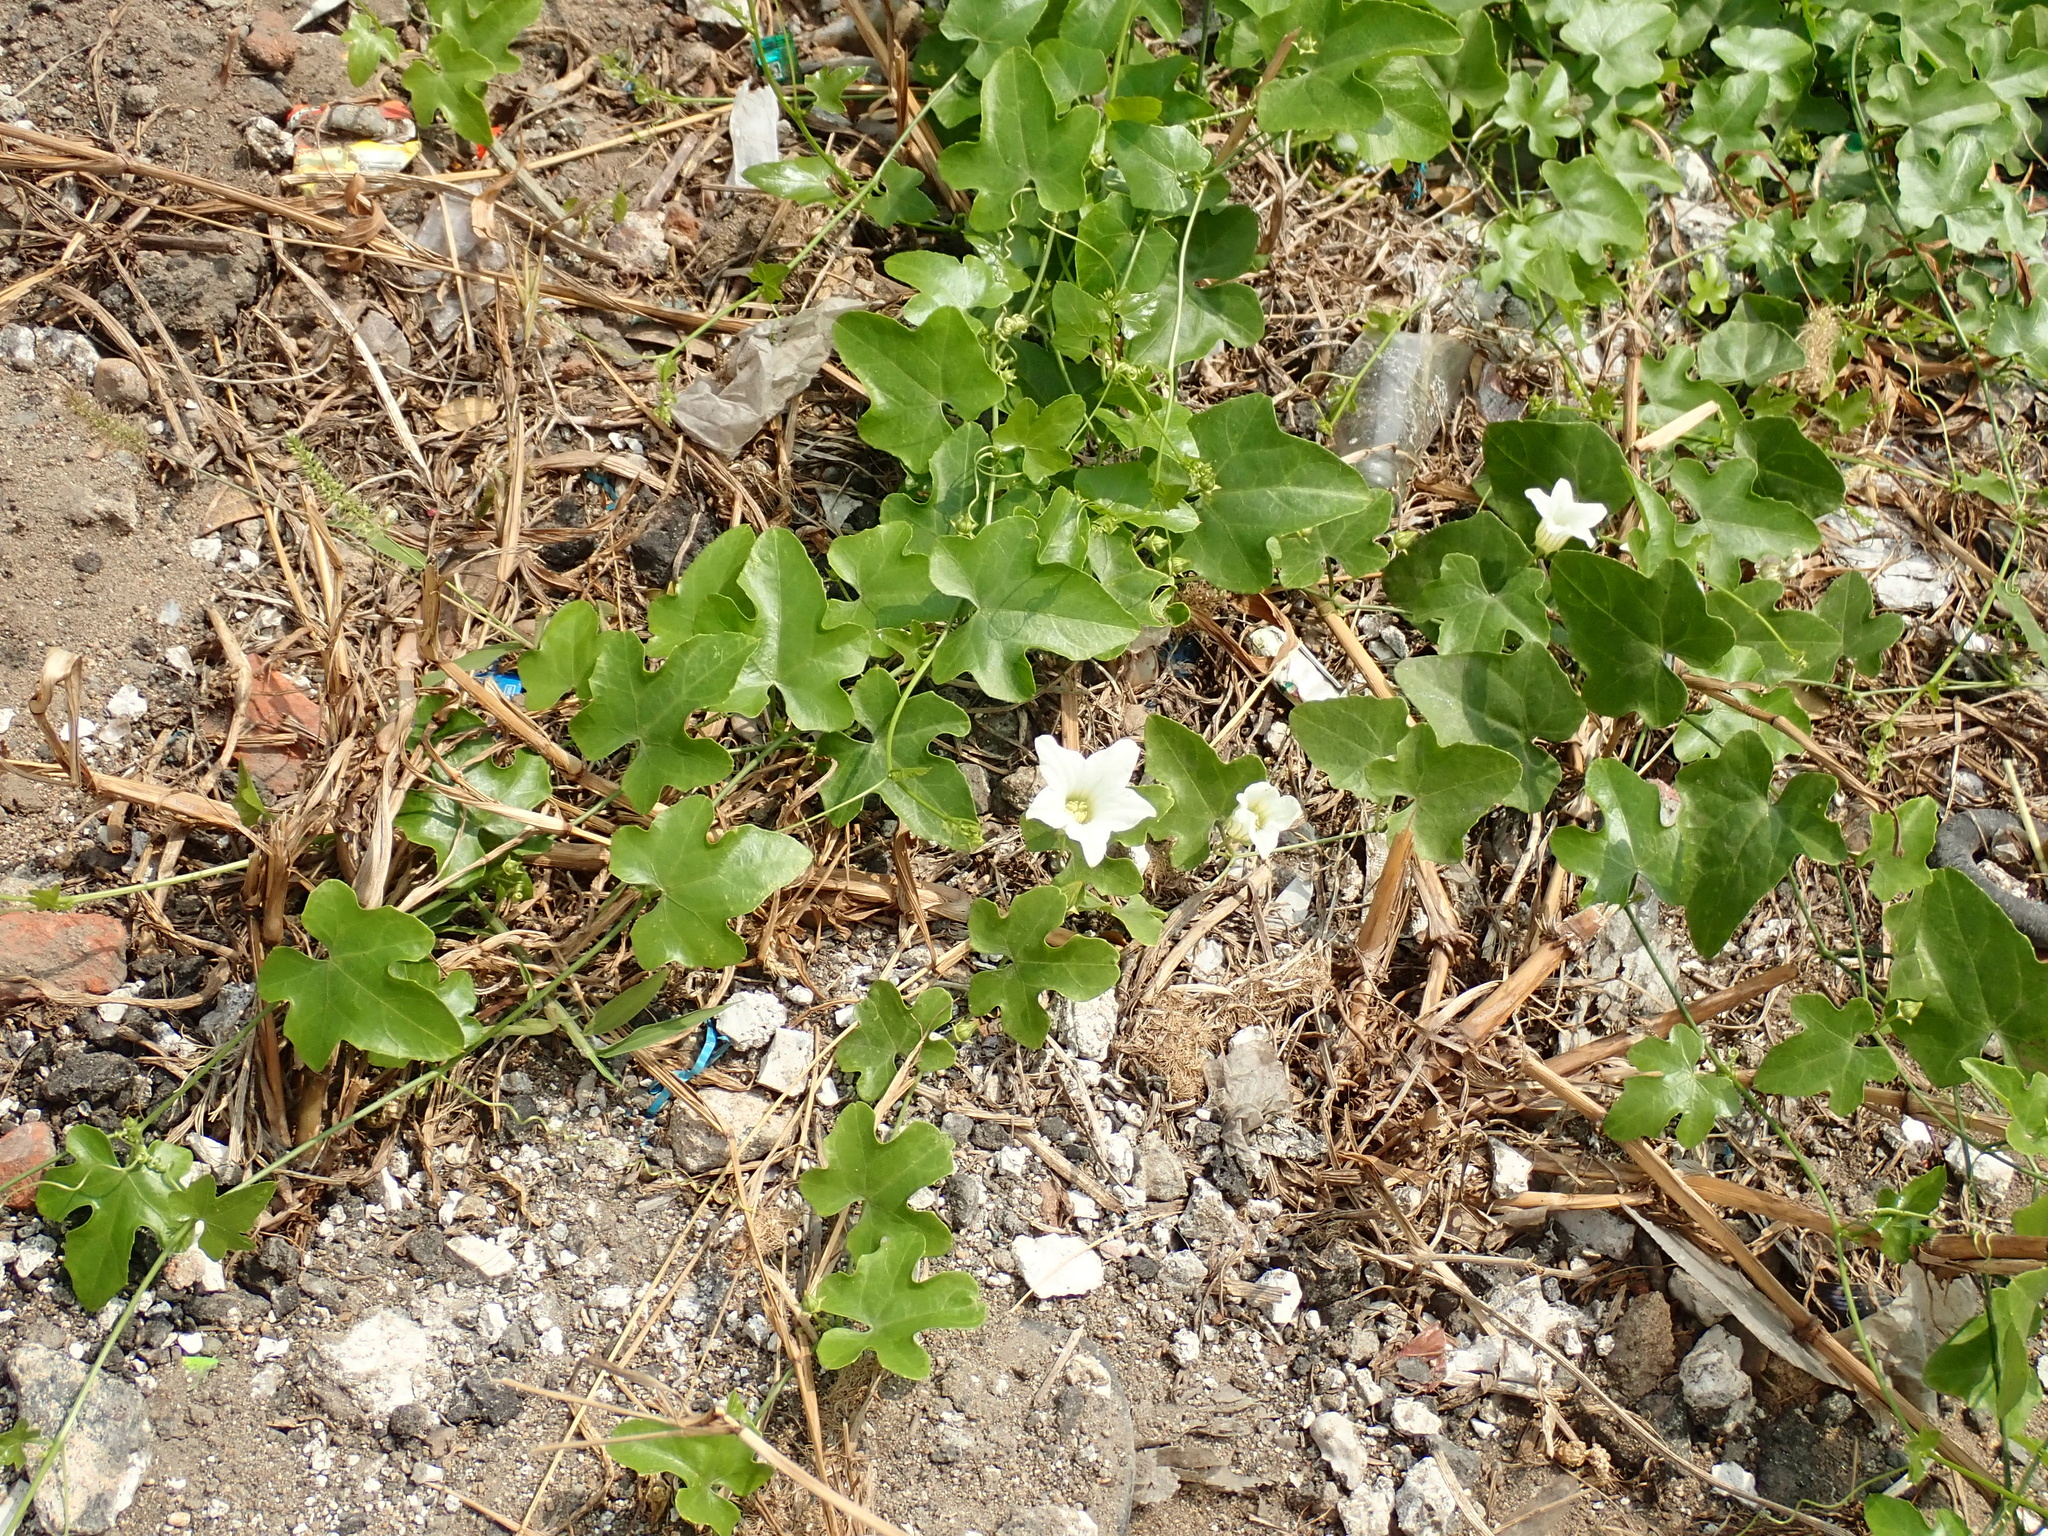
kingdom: Plantae
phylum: Tracheophyta
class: Magnoliopsida
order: Cucurbitales
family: Cucurbitaceae
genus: Coccinia
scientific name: Coccinia grandis
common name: Ivy gourd
